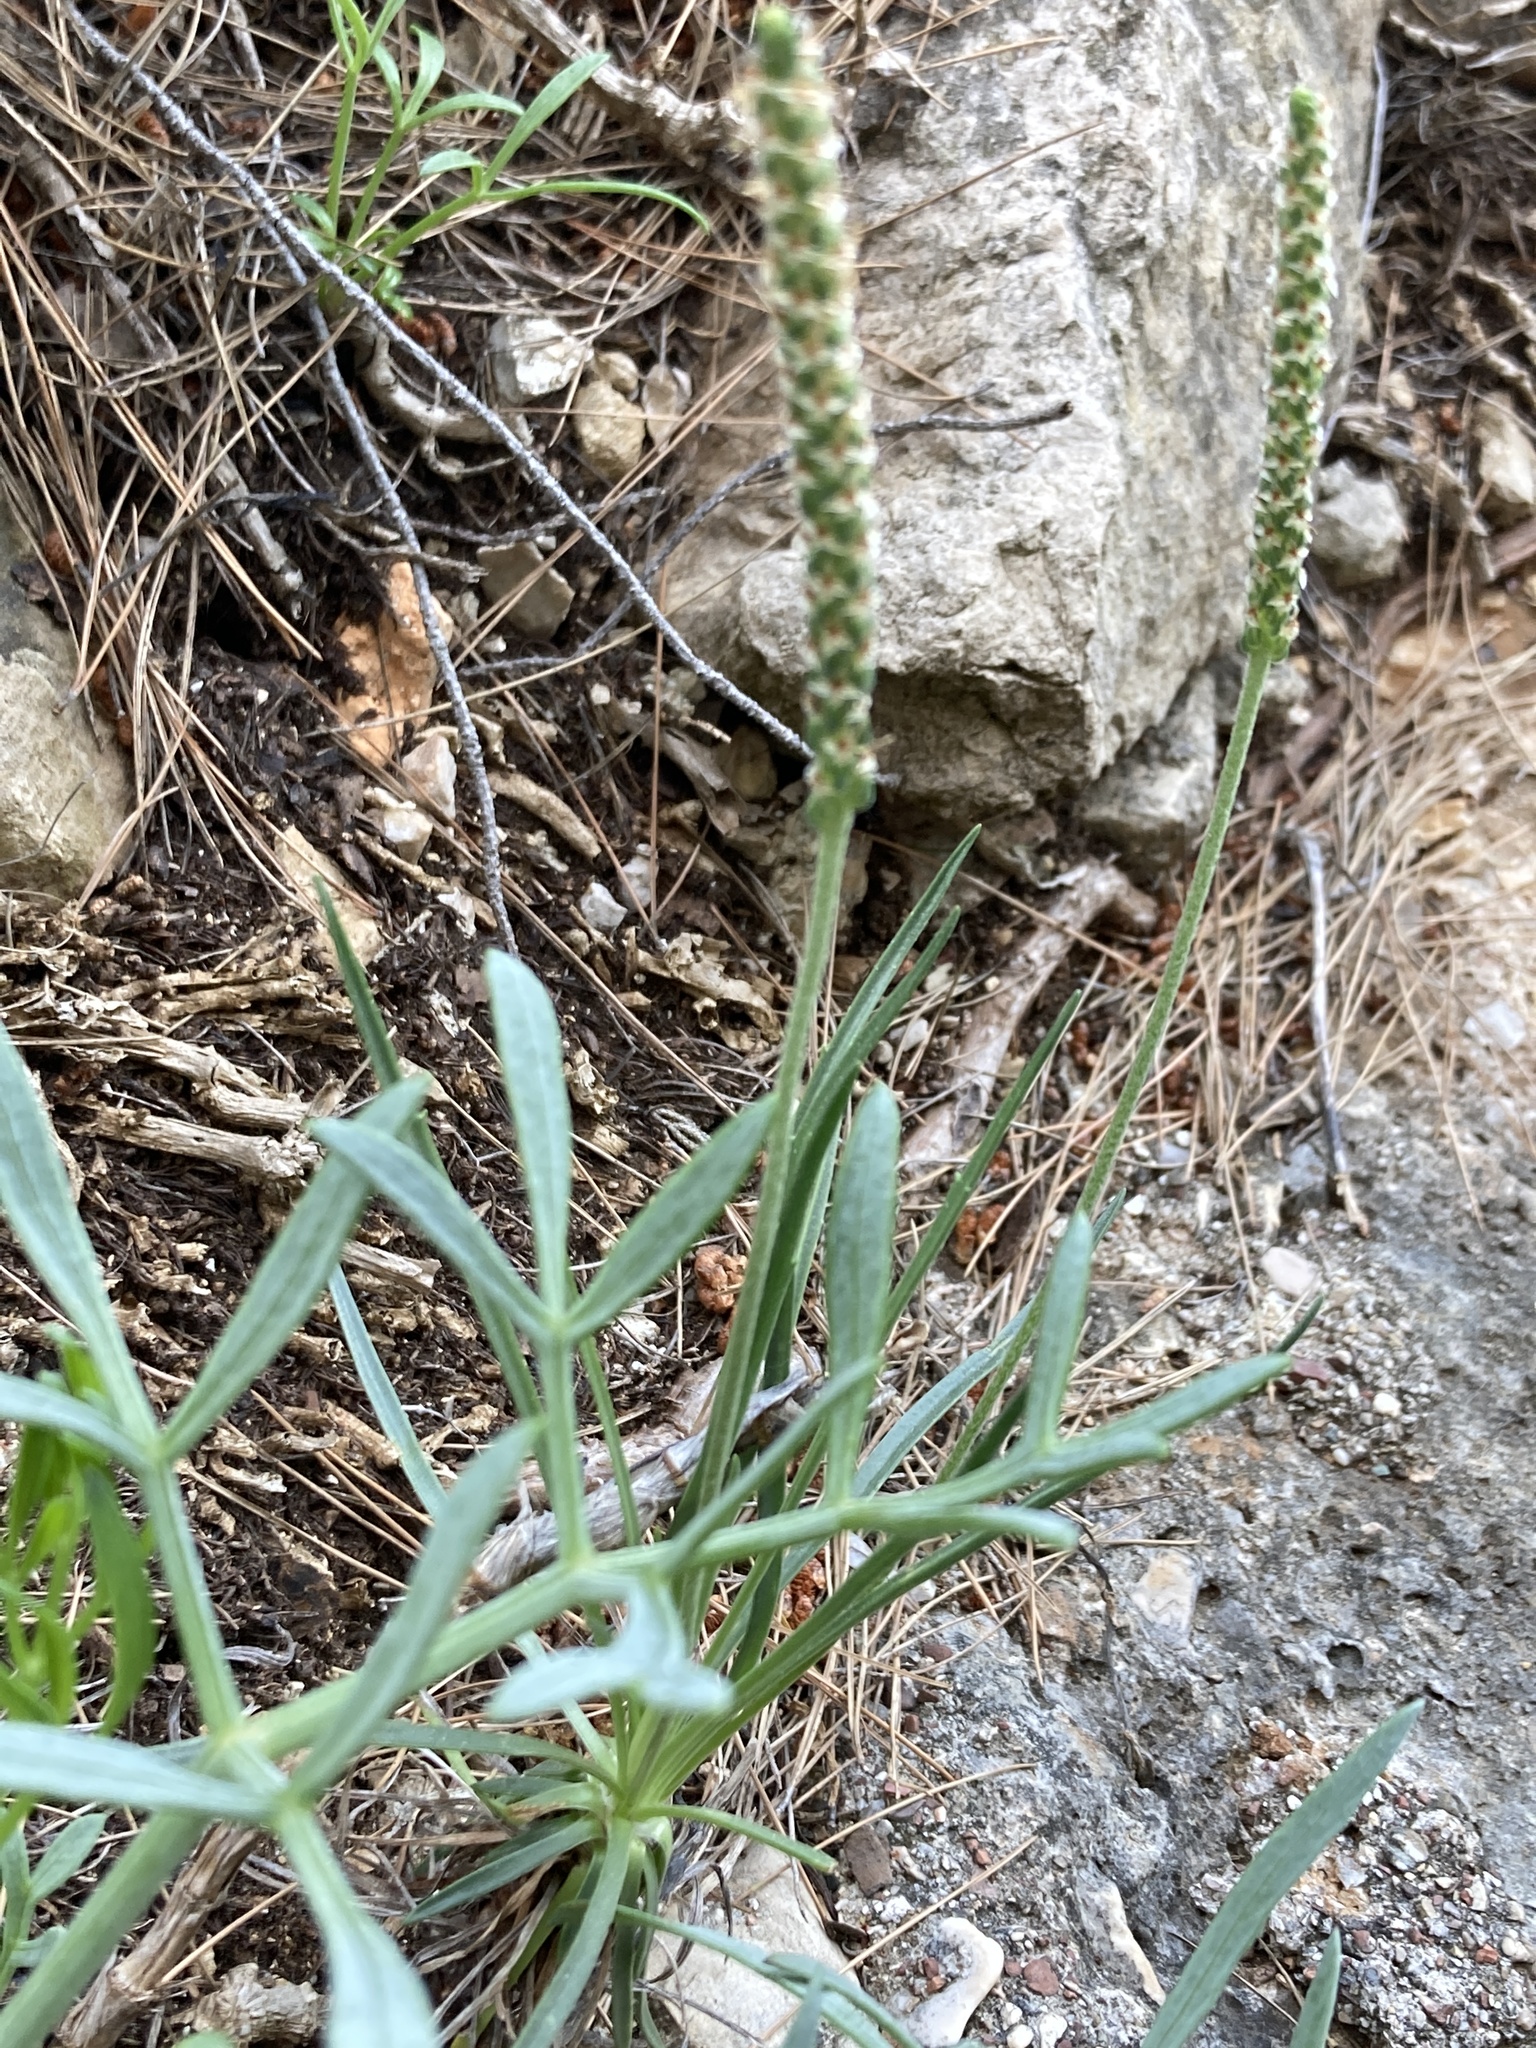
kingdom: Plantae
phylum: Tracheophyta
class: Magnoliopsida
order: Apiales
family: Apiaceae
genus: Crithmum
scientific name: Crithmum maritimum
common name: Rock samphire
